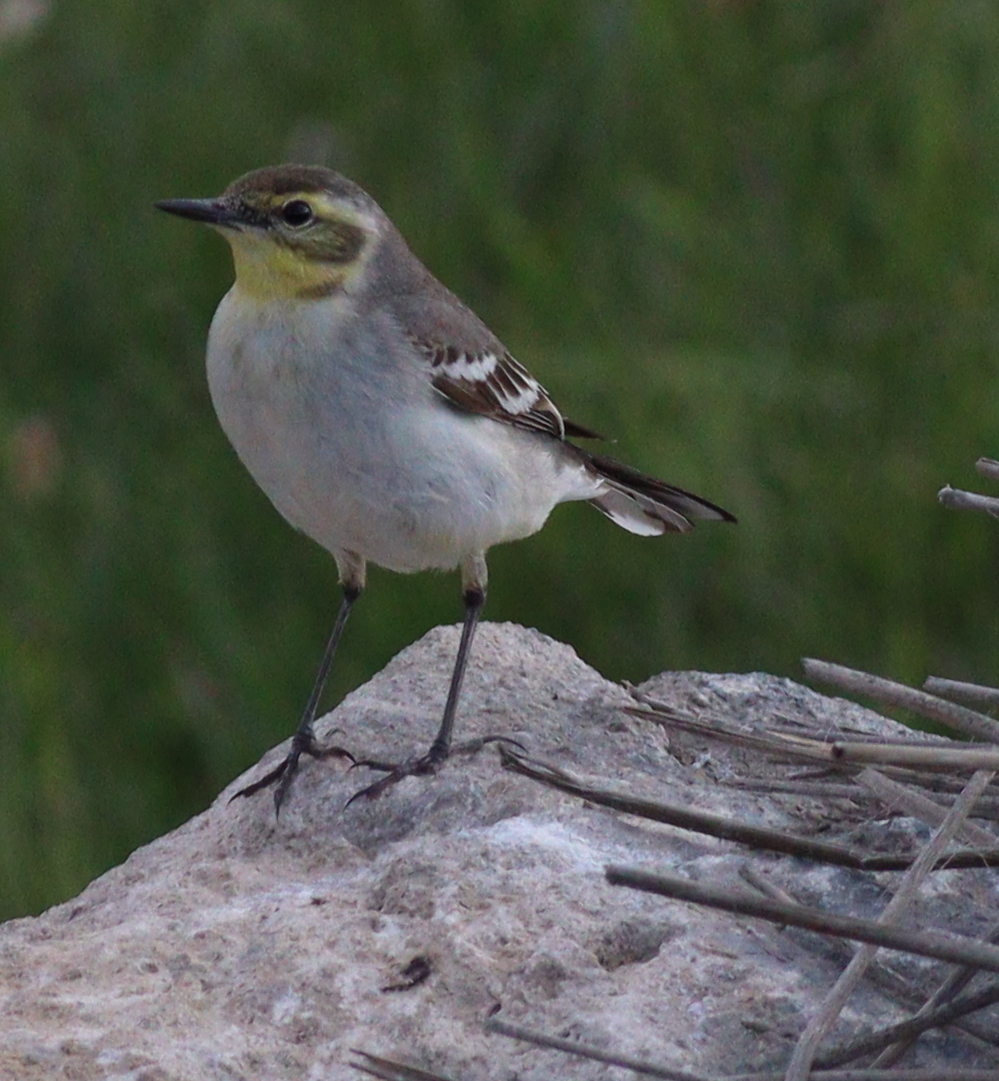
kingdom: Animalia
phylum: Chordata
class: Aves
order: Passeriformes
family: Motacillidae
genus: Motacilla
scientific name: Motacilla citreola
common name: Citrine wagtail
